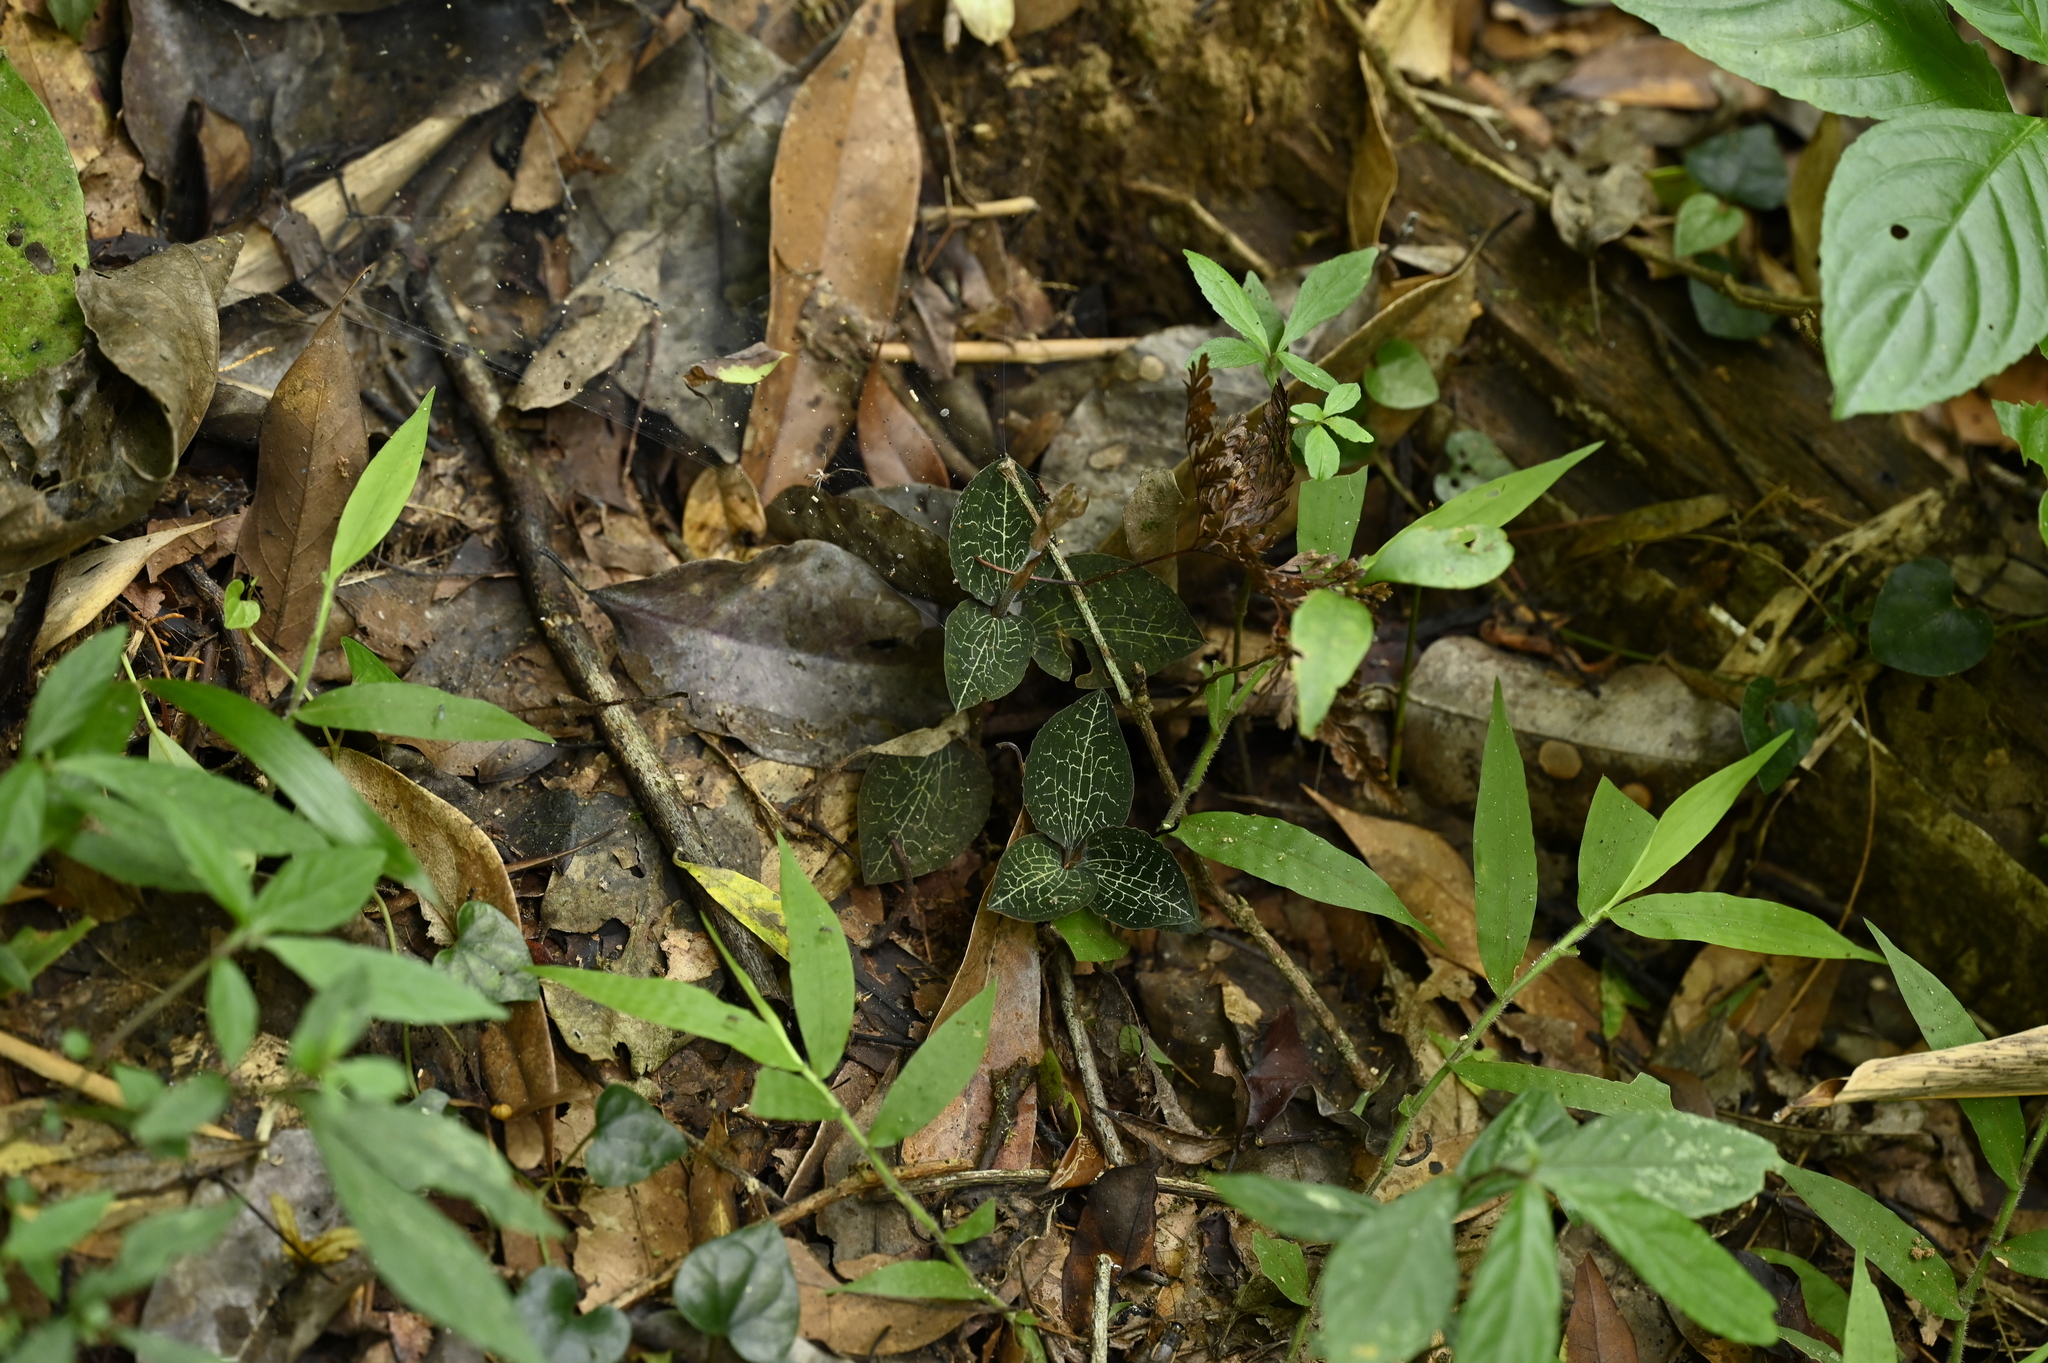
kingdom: Plantae
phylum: Tracheophyta
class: Liliopsida
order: Asparagales
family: Orchidaceae
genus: Anoectochilus
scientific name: Anoectochilus formosanus
